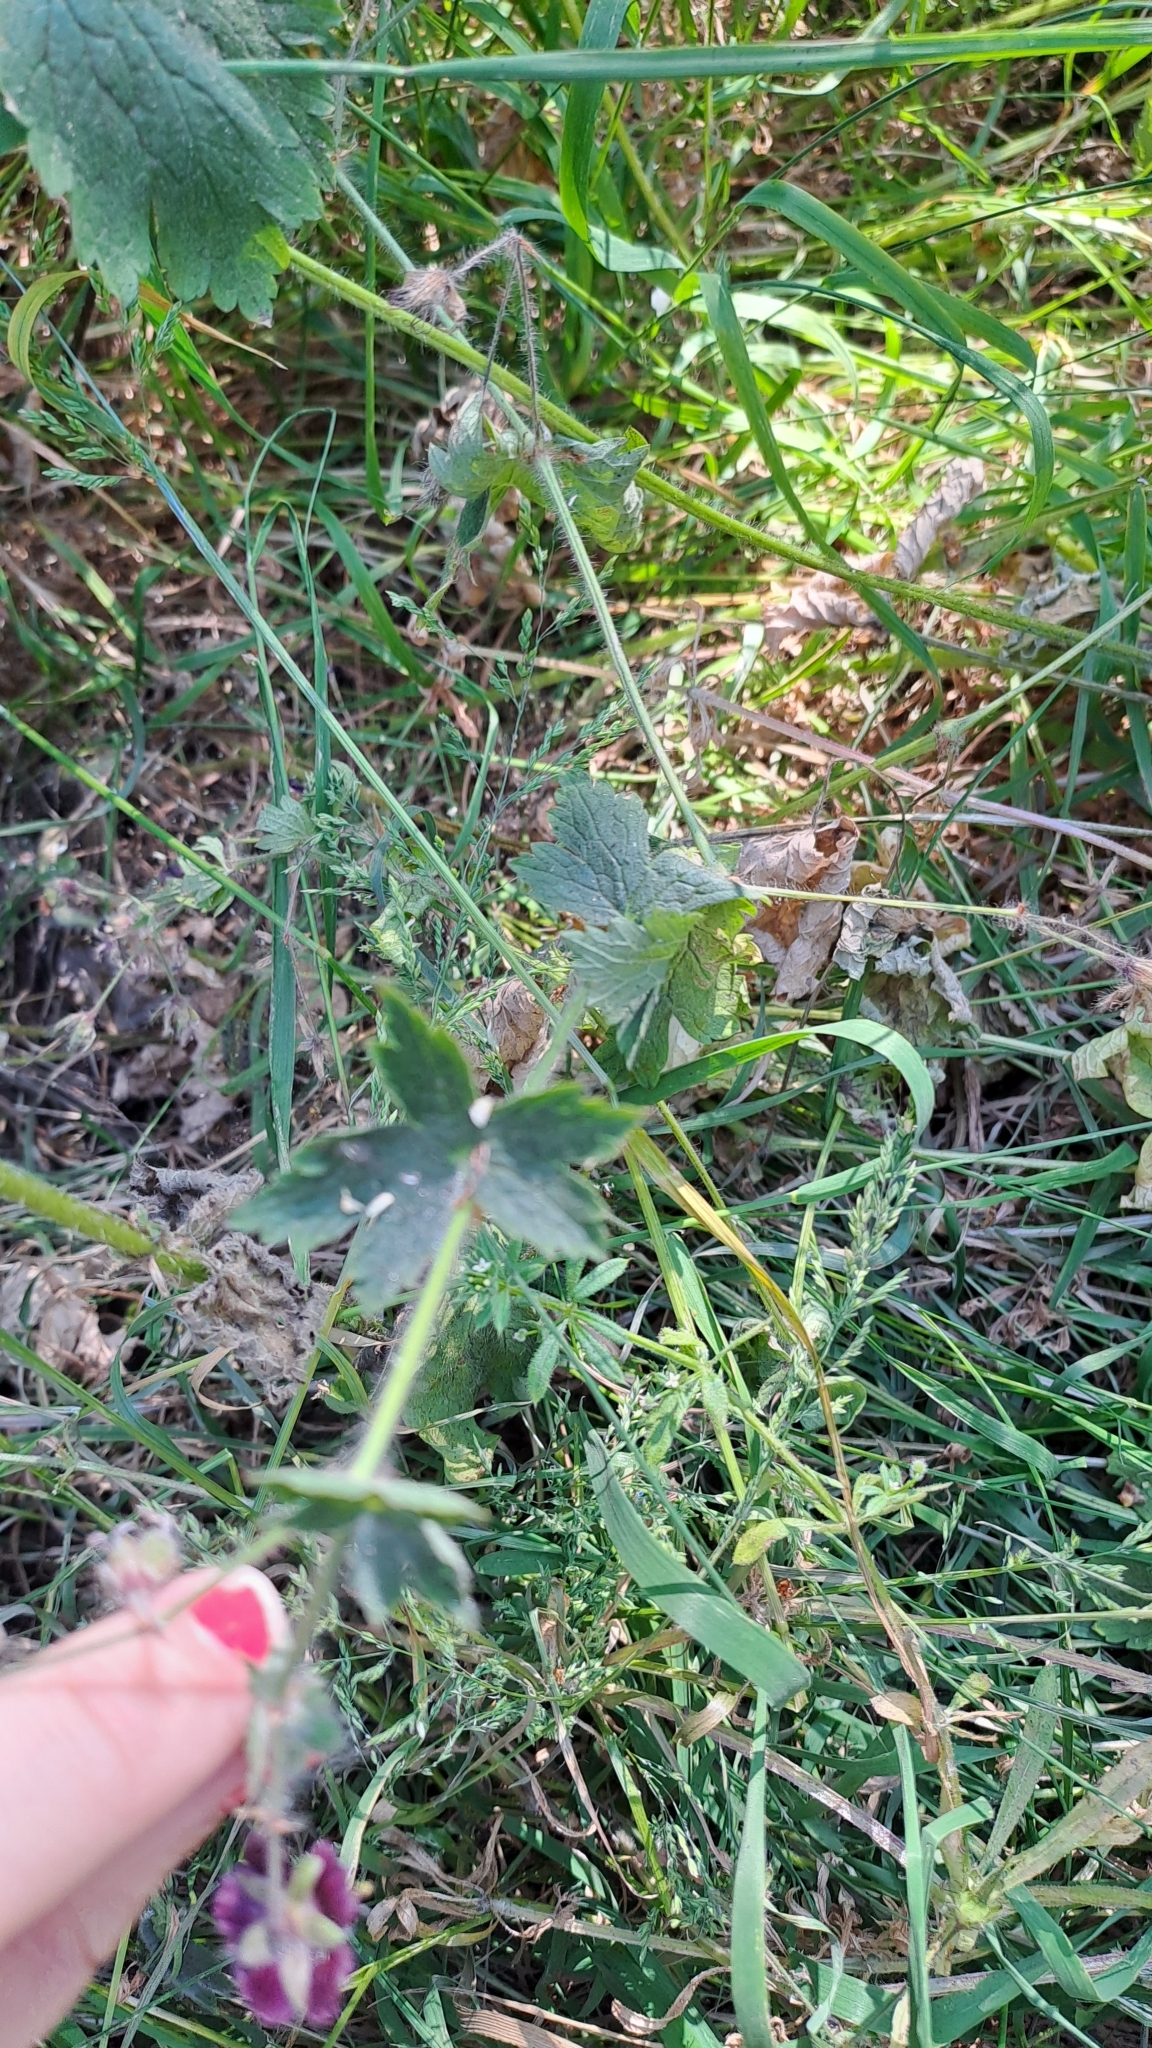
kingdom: Plantae
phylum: Tracheophyta
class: Magnoliopsida
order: Geraniales
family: Geraniaceae
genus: Geranium
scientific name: Geranium phaeum
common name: Dusky crane's-bill
